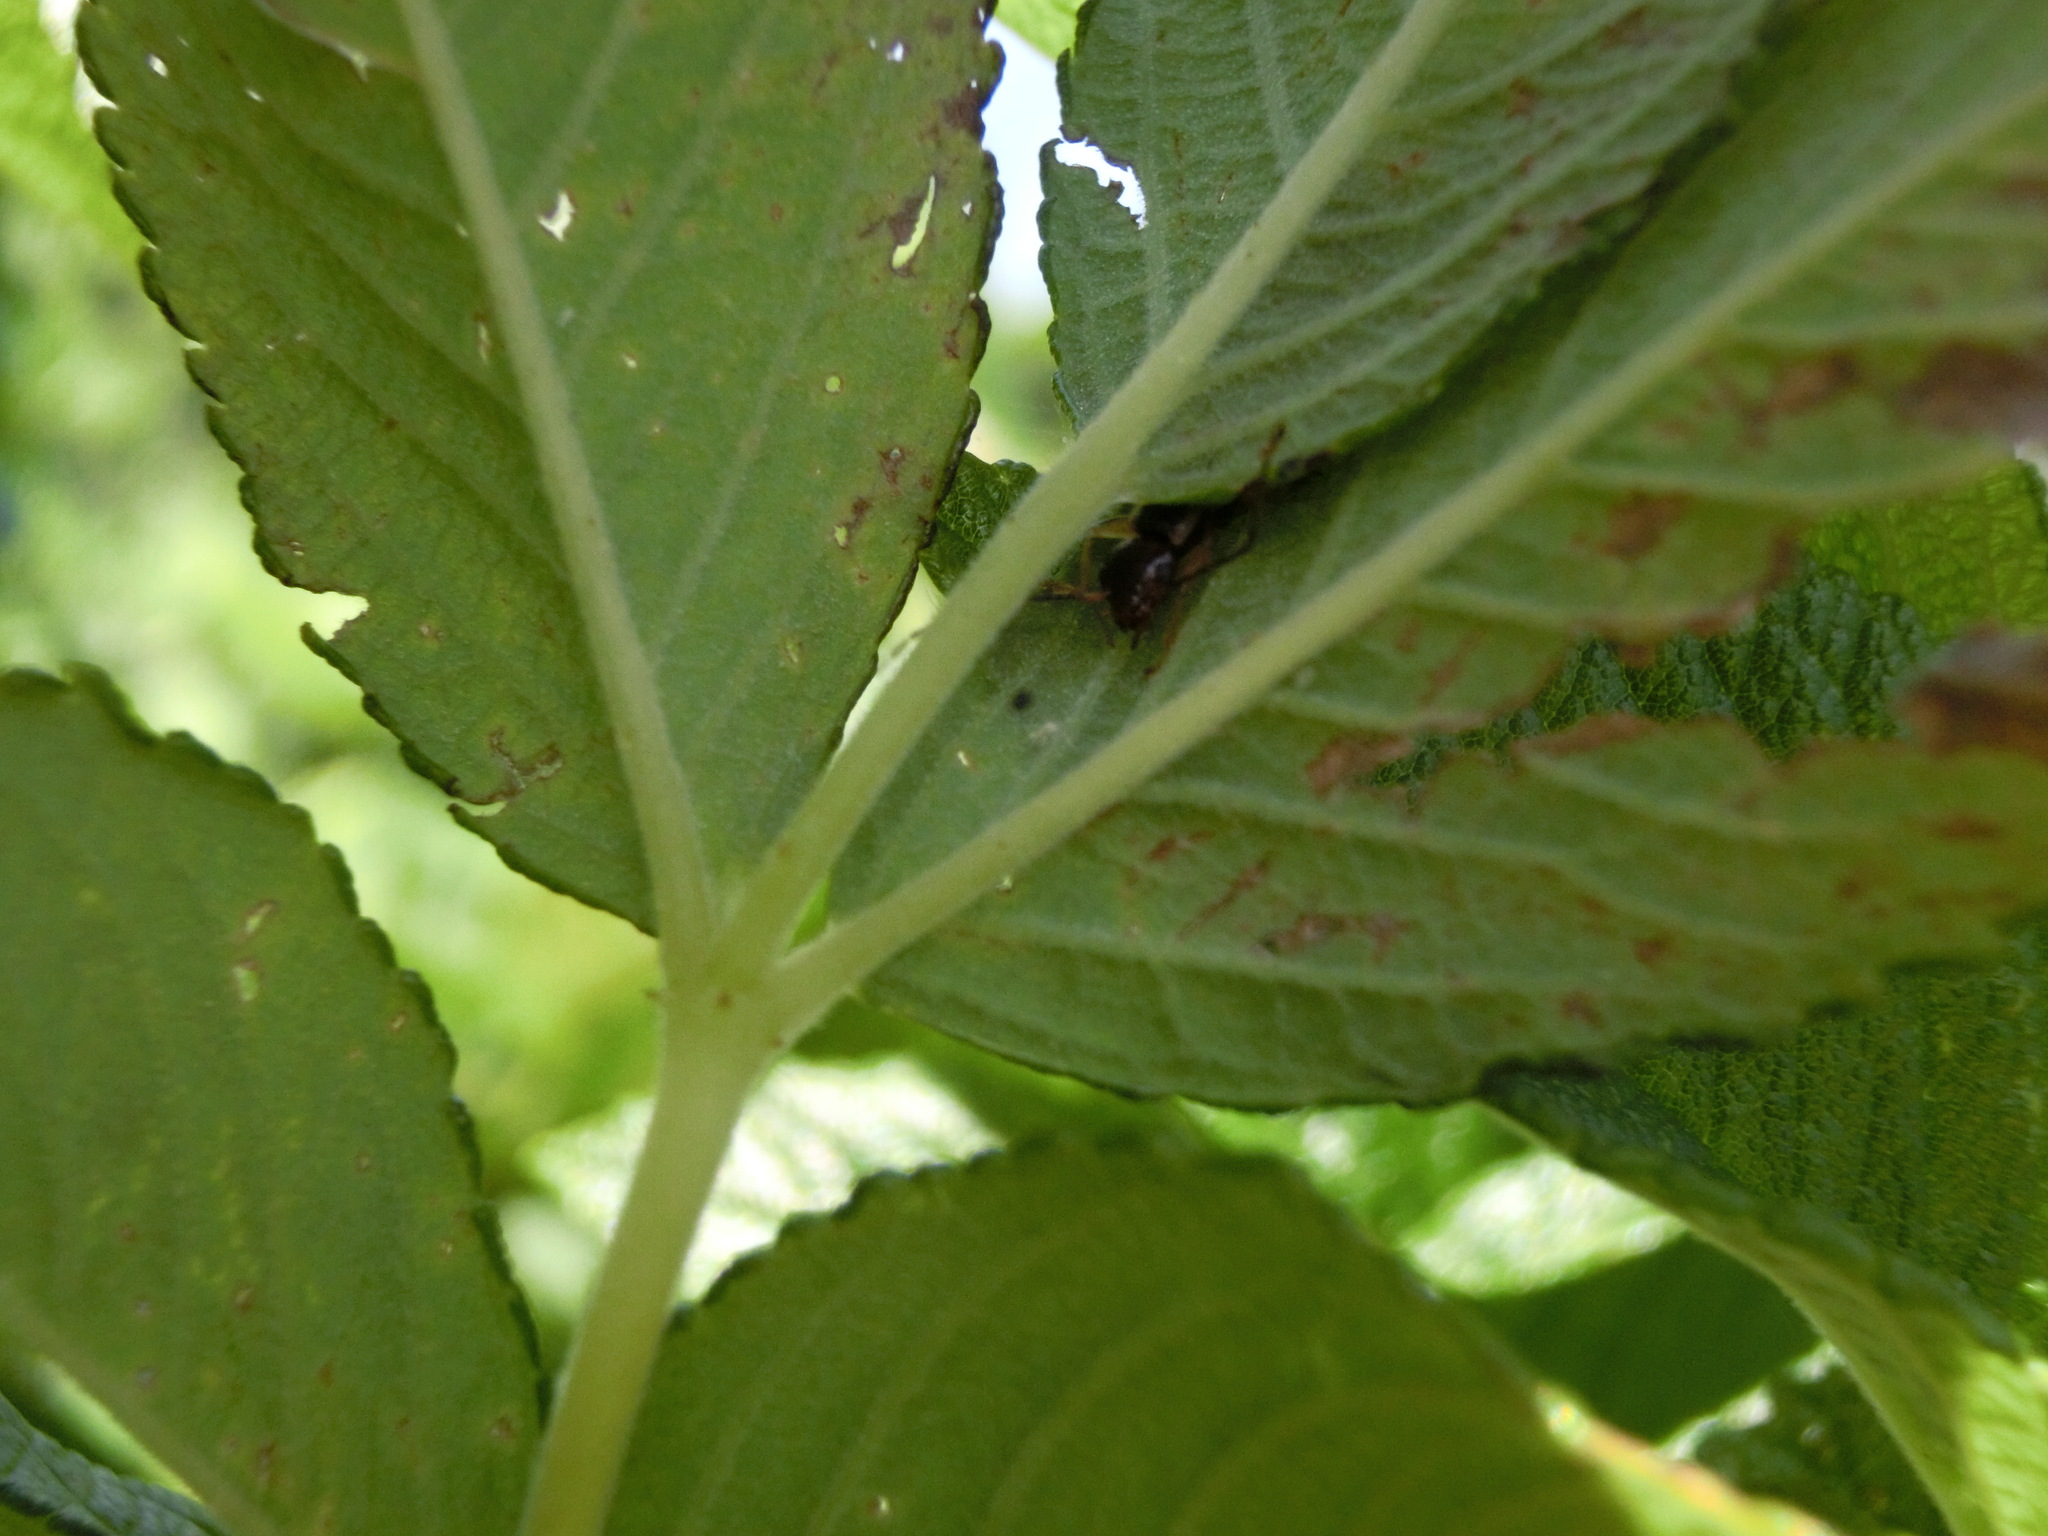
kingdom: Animalia
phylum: Arthropoda
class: Insecta
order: Dermaptera
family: Forficulidae
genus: Forficula
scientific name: Forficula
